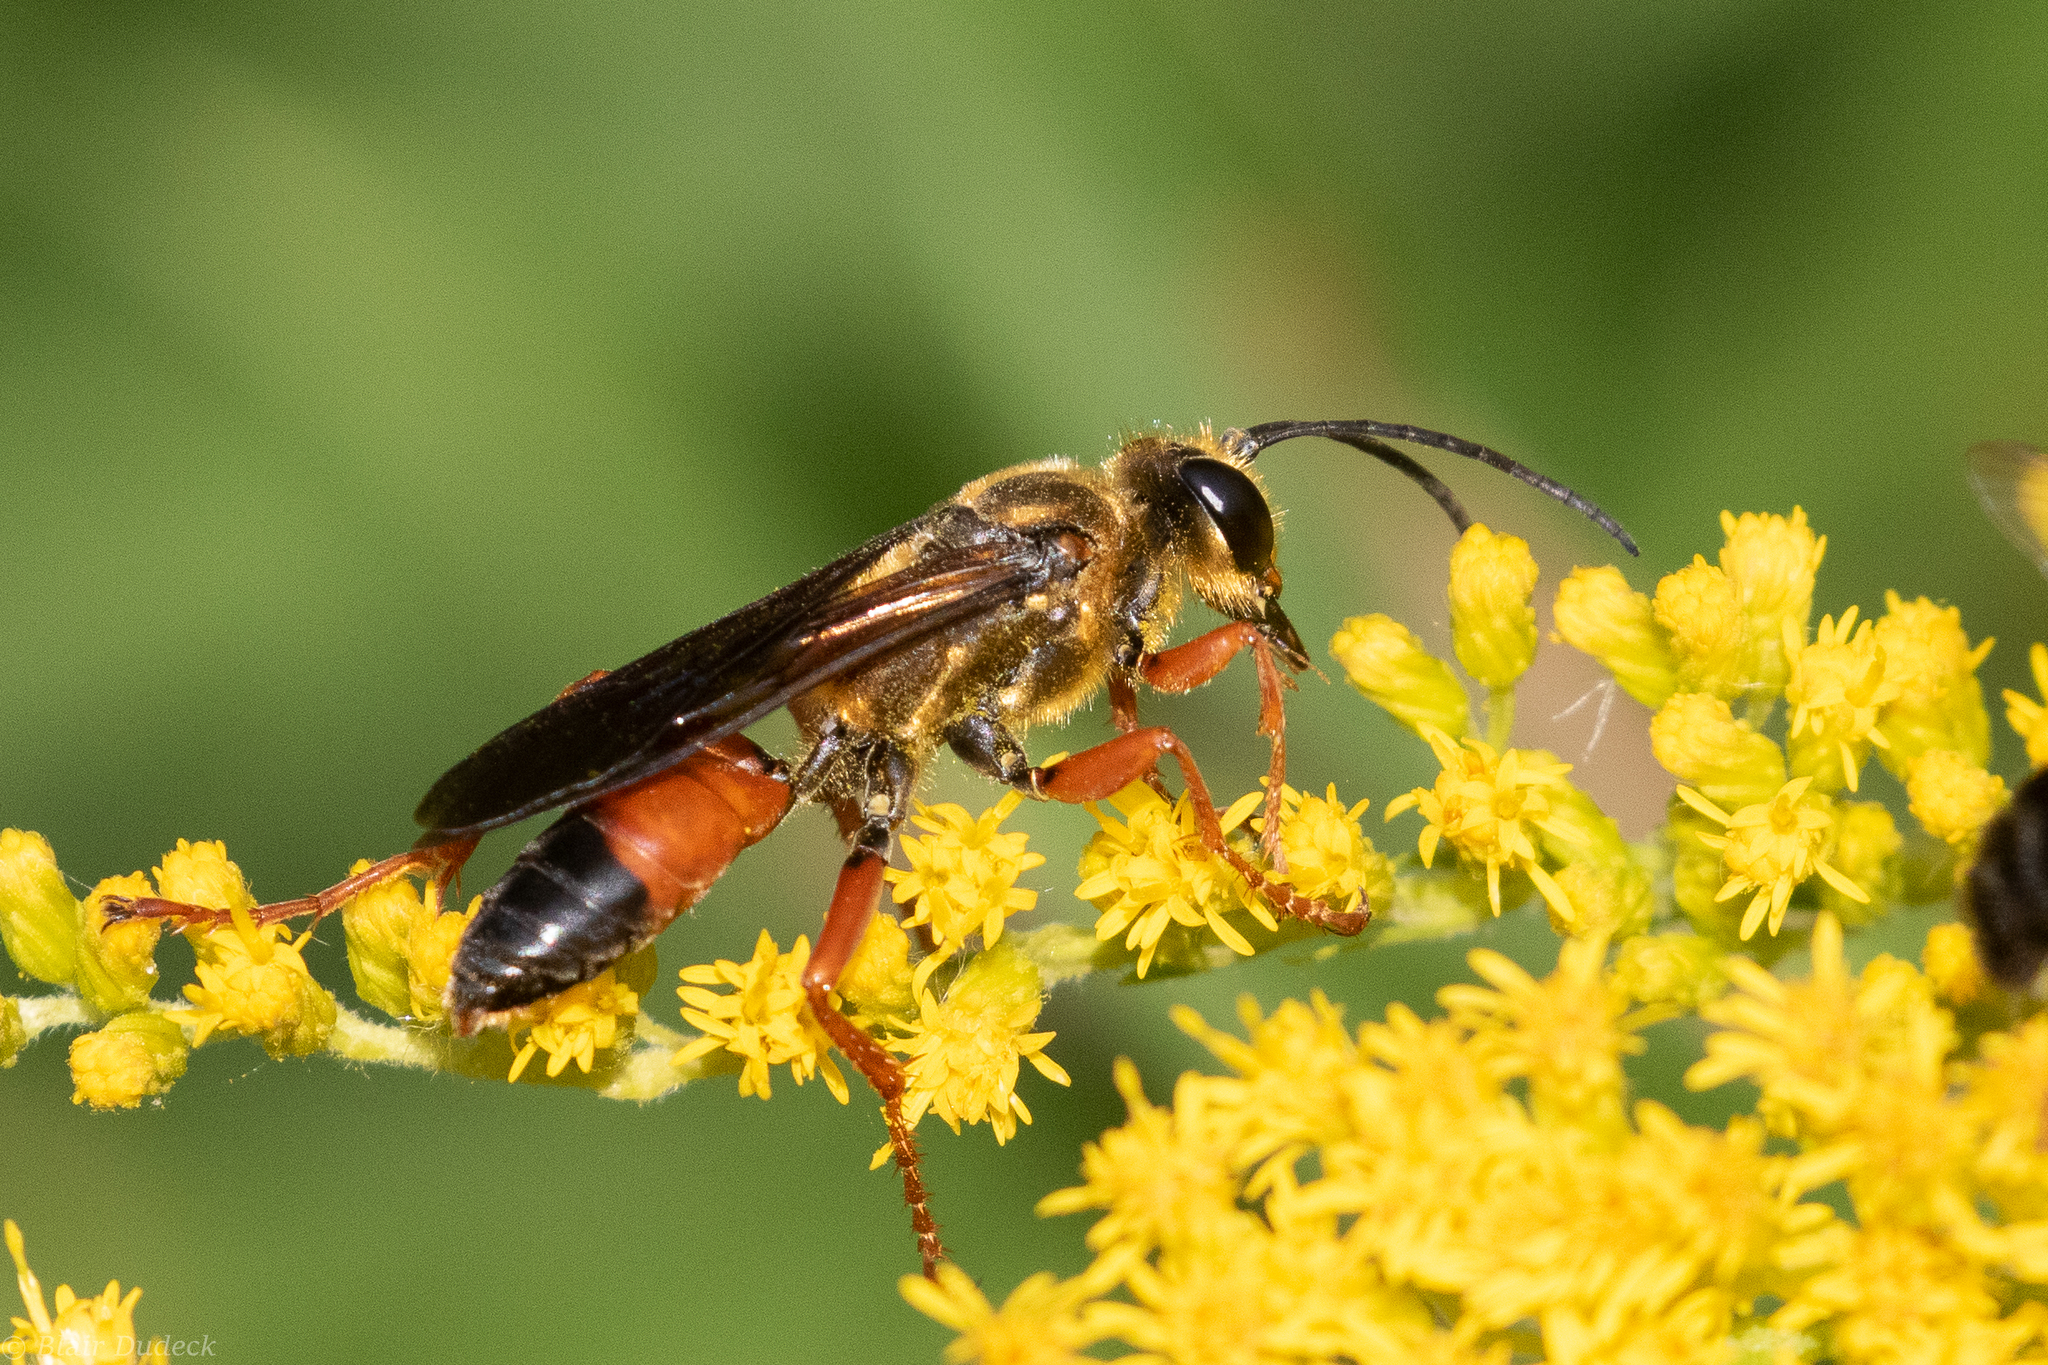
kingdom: Animalia
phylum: Arthropoda
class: Insecta
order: Hymenoptera
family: Sphecidae
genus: Sphex
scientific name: Sphex ichneumoneus
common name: Great golden digger wasp
